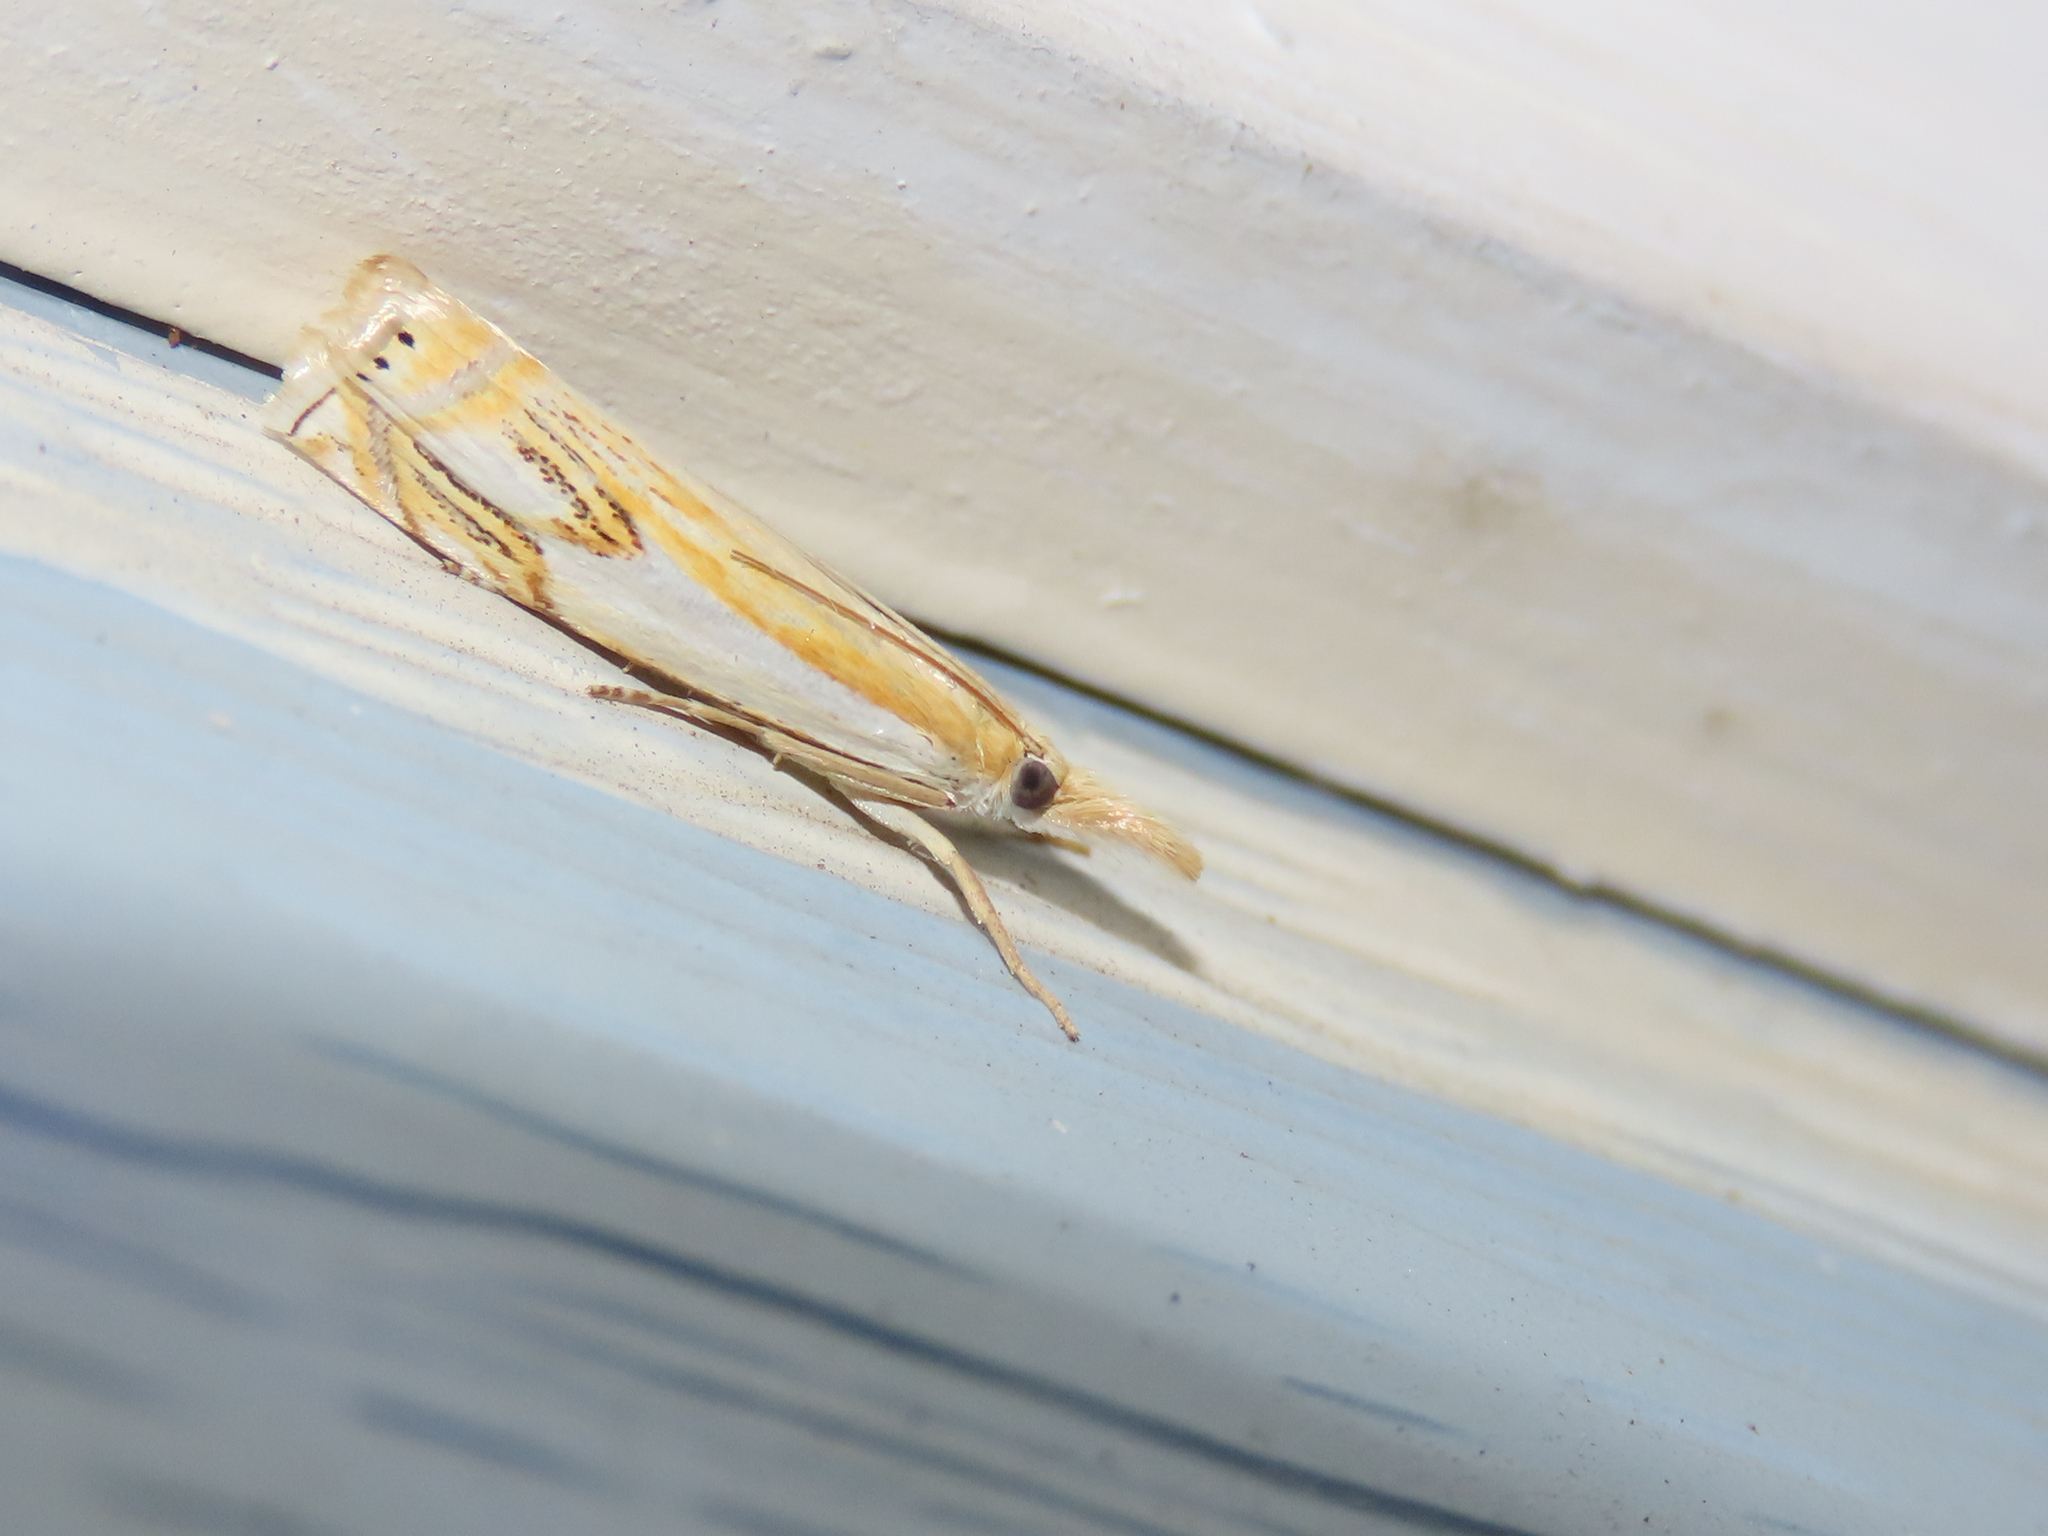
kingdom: Animalia
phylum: Arthropoda
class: Insecta
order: Lepidoptera
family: Crambidae
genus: Crambus
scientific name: Crambus agitatellus
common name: Double-banded grass-veneer
